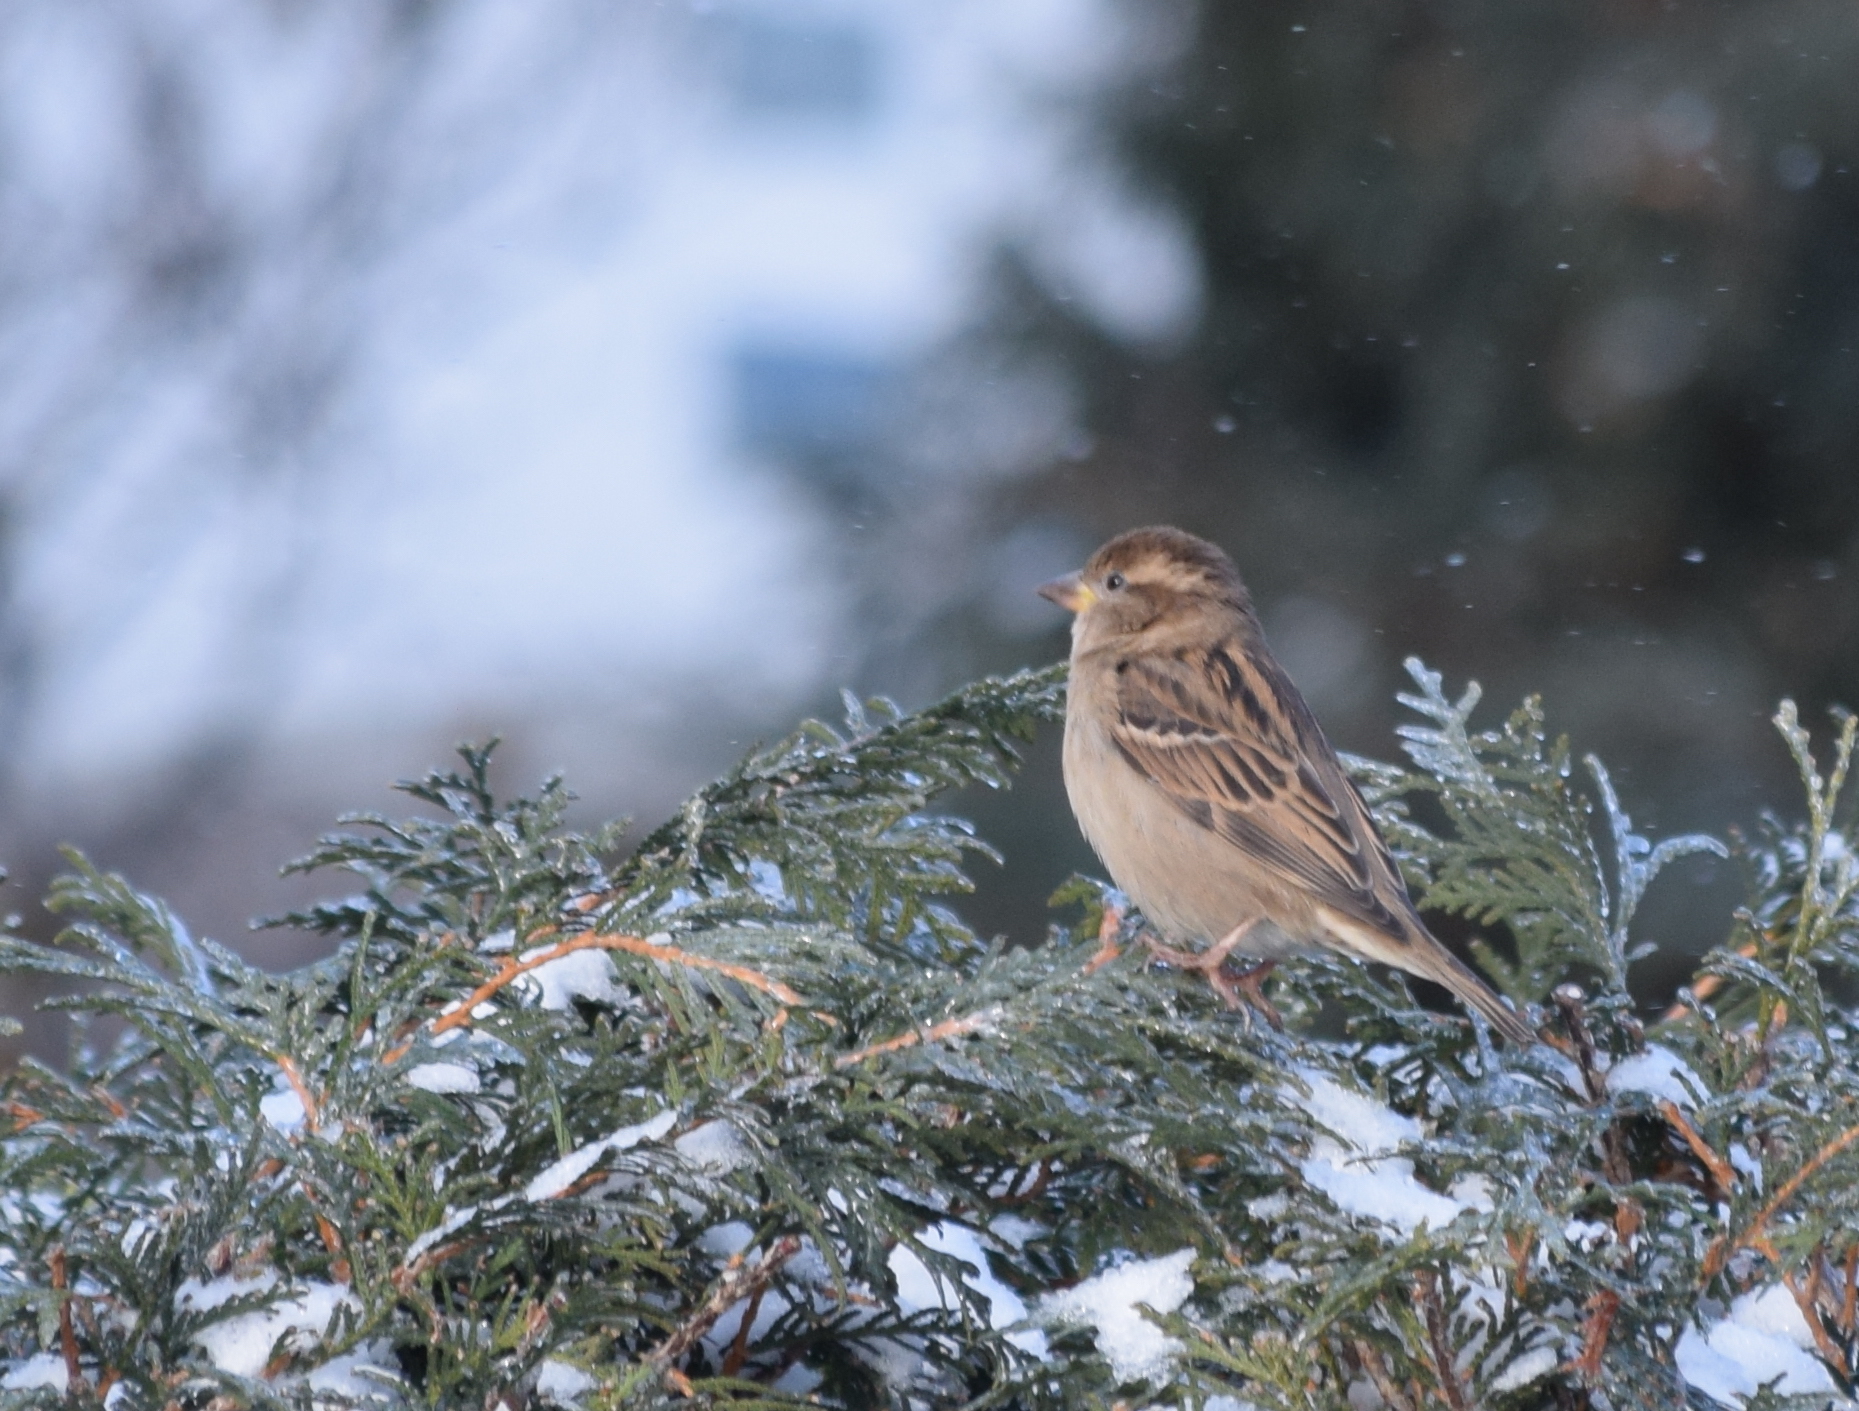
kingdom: Animalia
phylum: Chordata
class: Aves
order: Passeriformes
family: Passeridae
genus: Passer
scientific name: Passer domesticus
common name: House sparrow
